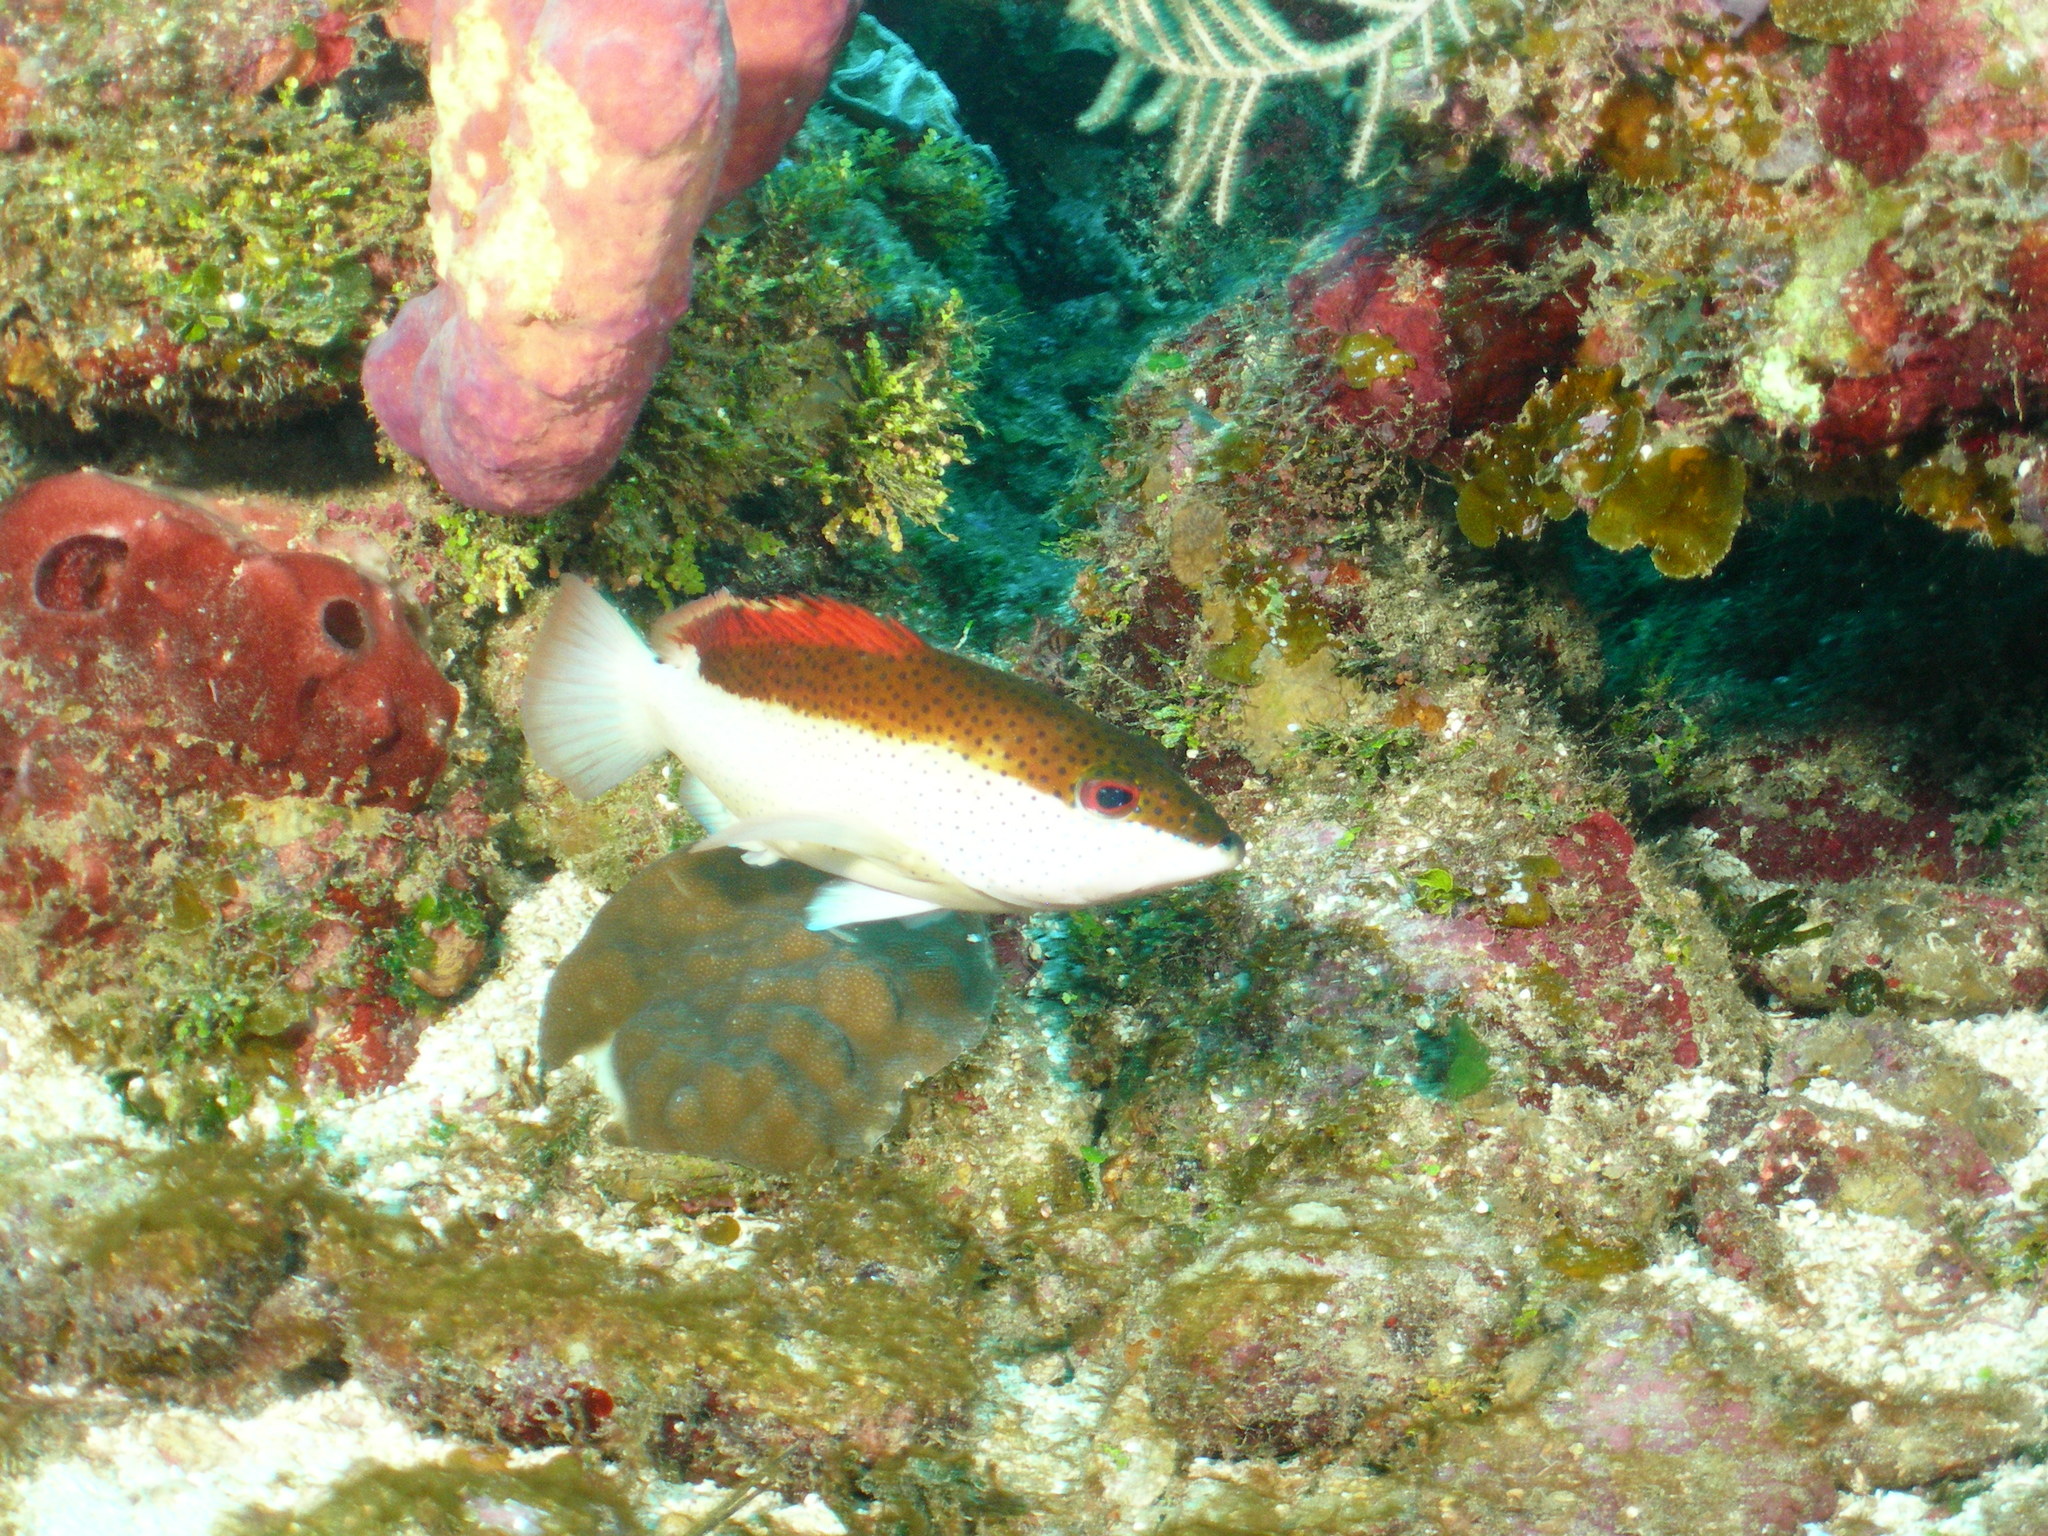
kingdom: Animalia
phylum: Chordata
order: Perciformes
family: Serranidae
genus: Cephalopholis
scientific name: Cephalopholis fulva
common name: Butterfish
